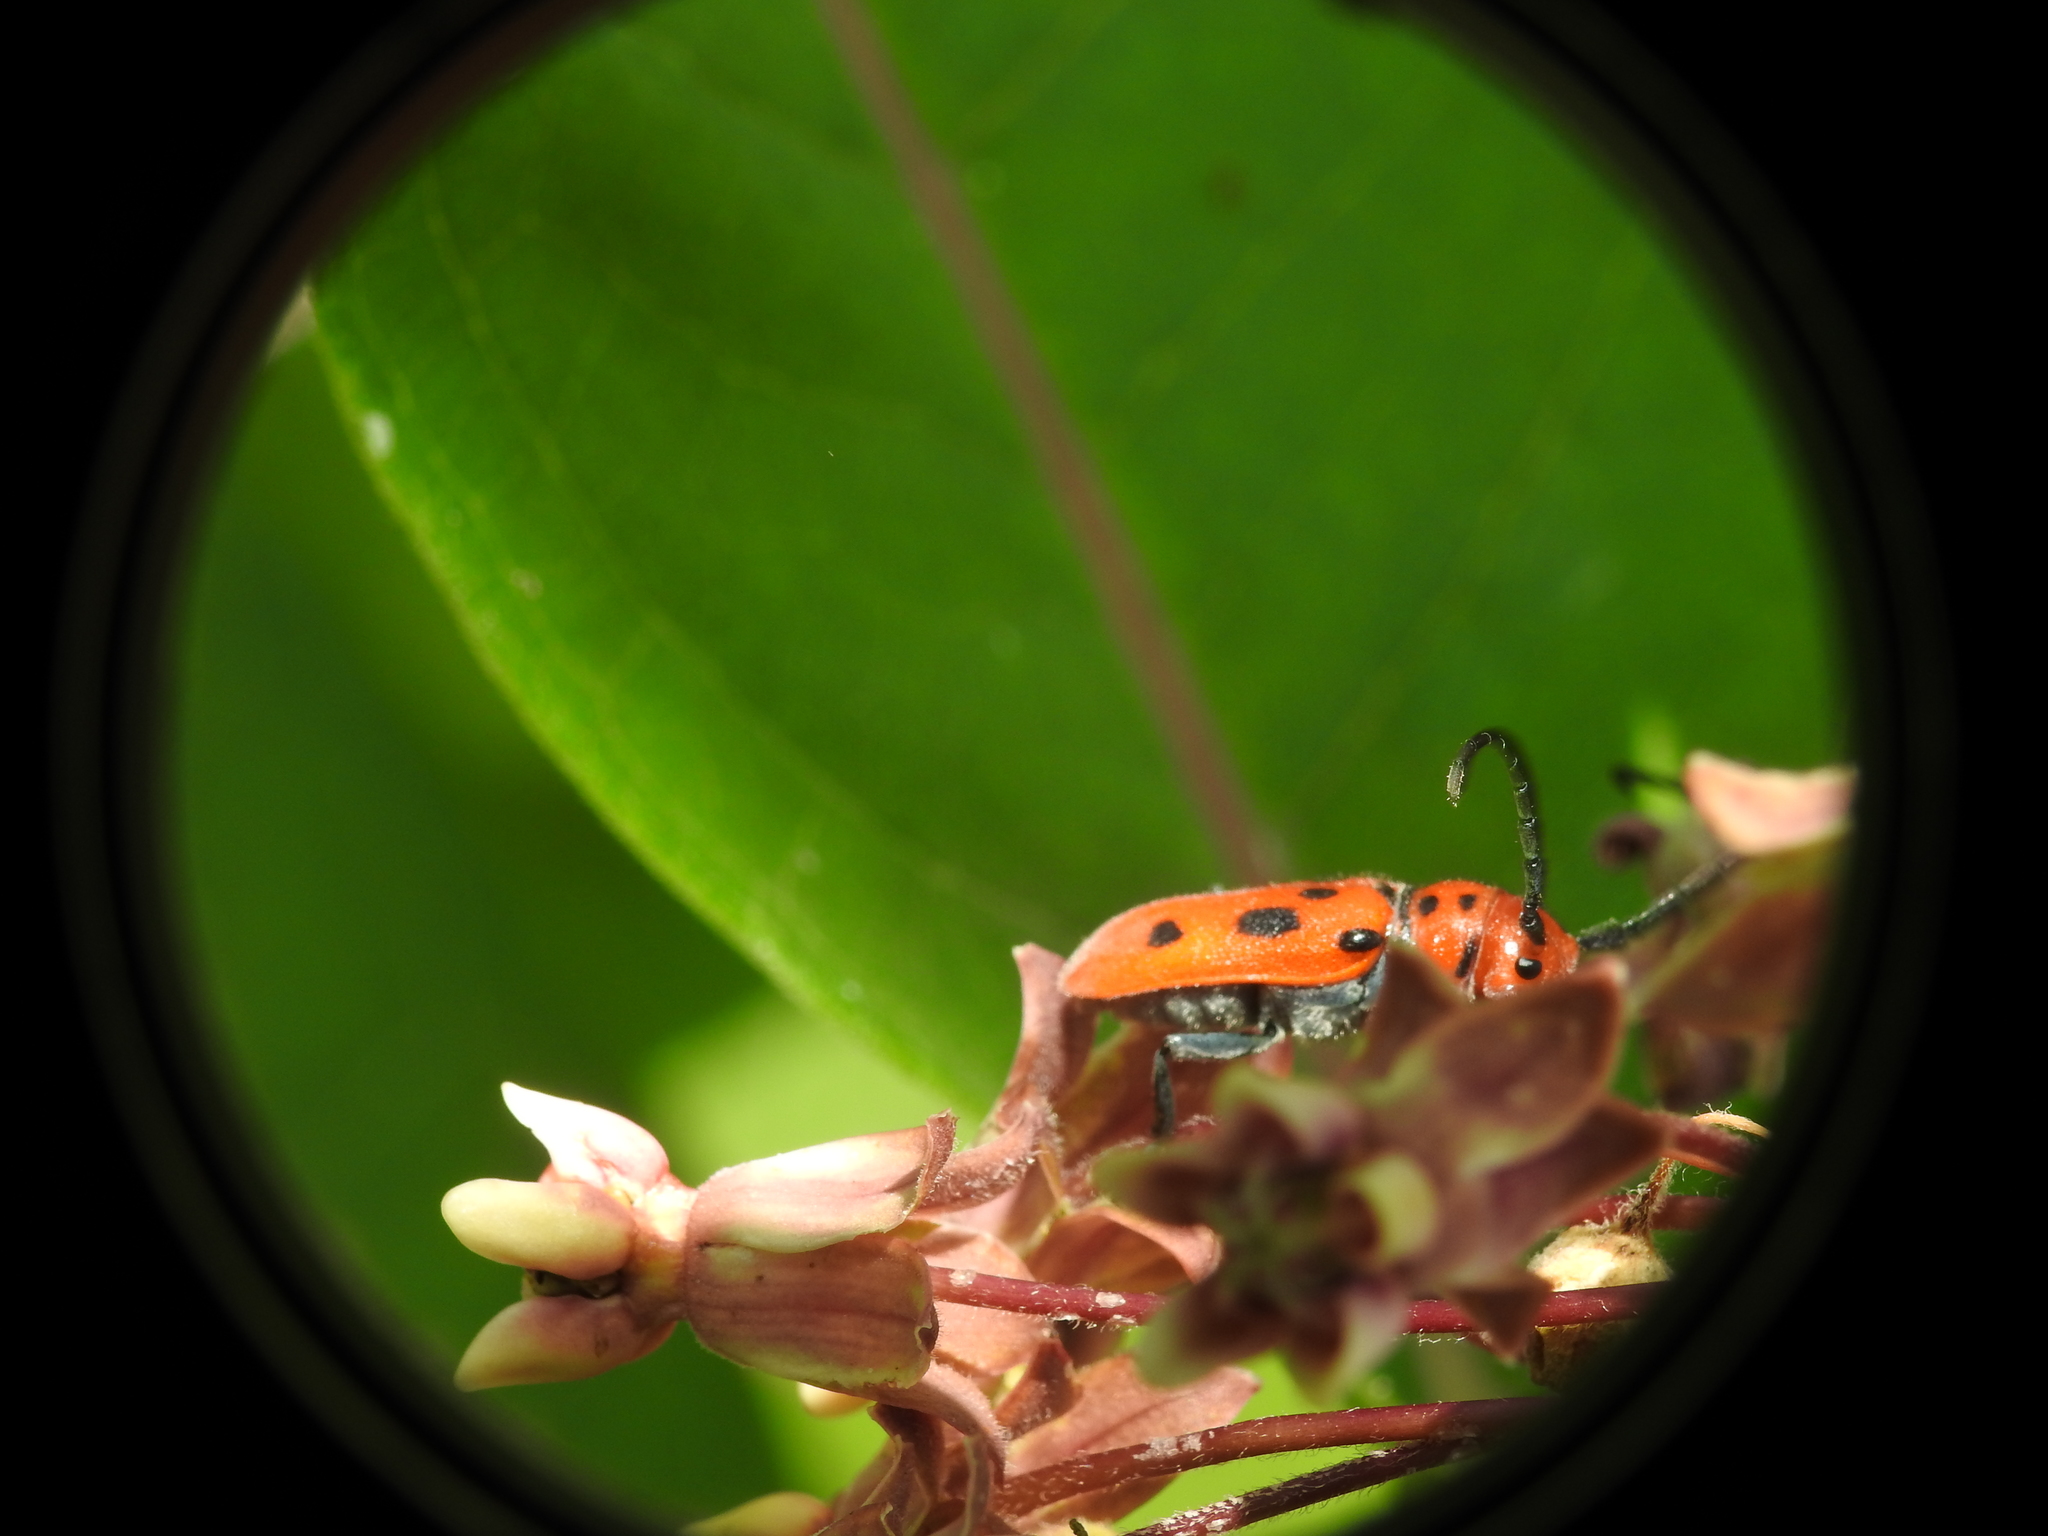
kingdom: Animalia
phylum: Arthropoda
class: Insecta
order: Coleoptera
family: Cerambycidae
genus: Tetraopes
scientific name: Tetraopes tetrophthalmus
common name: Red milkweed beetle
